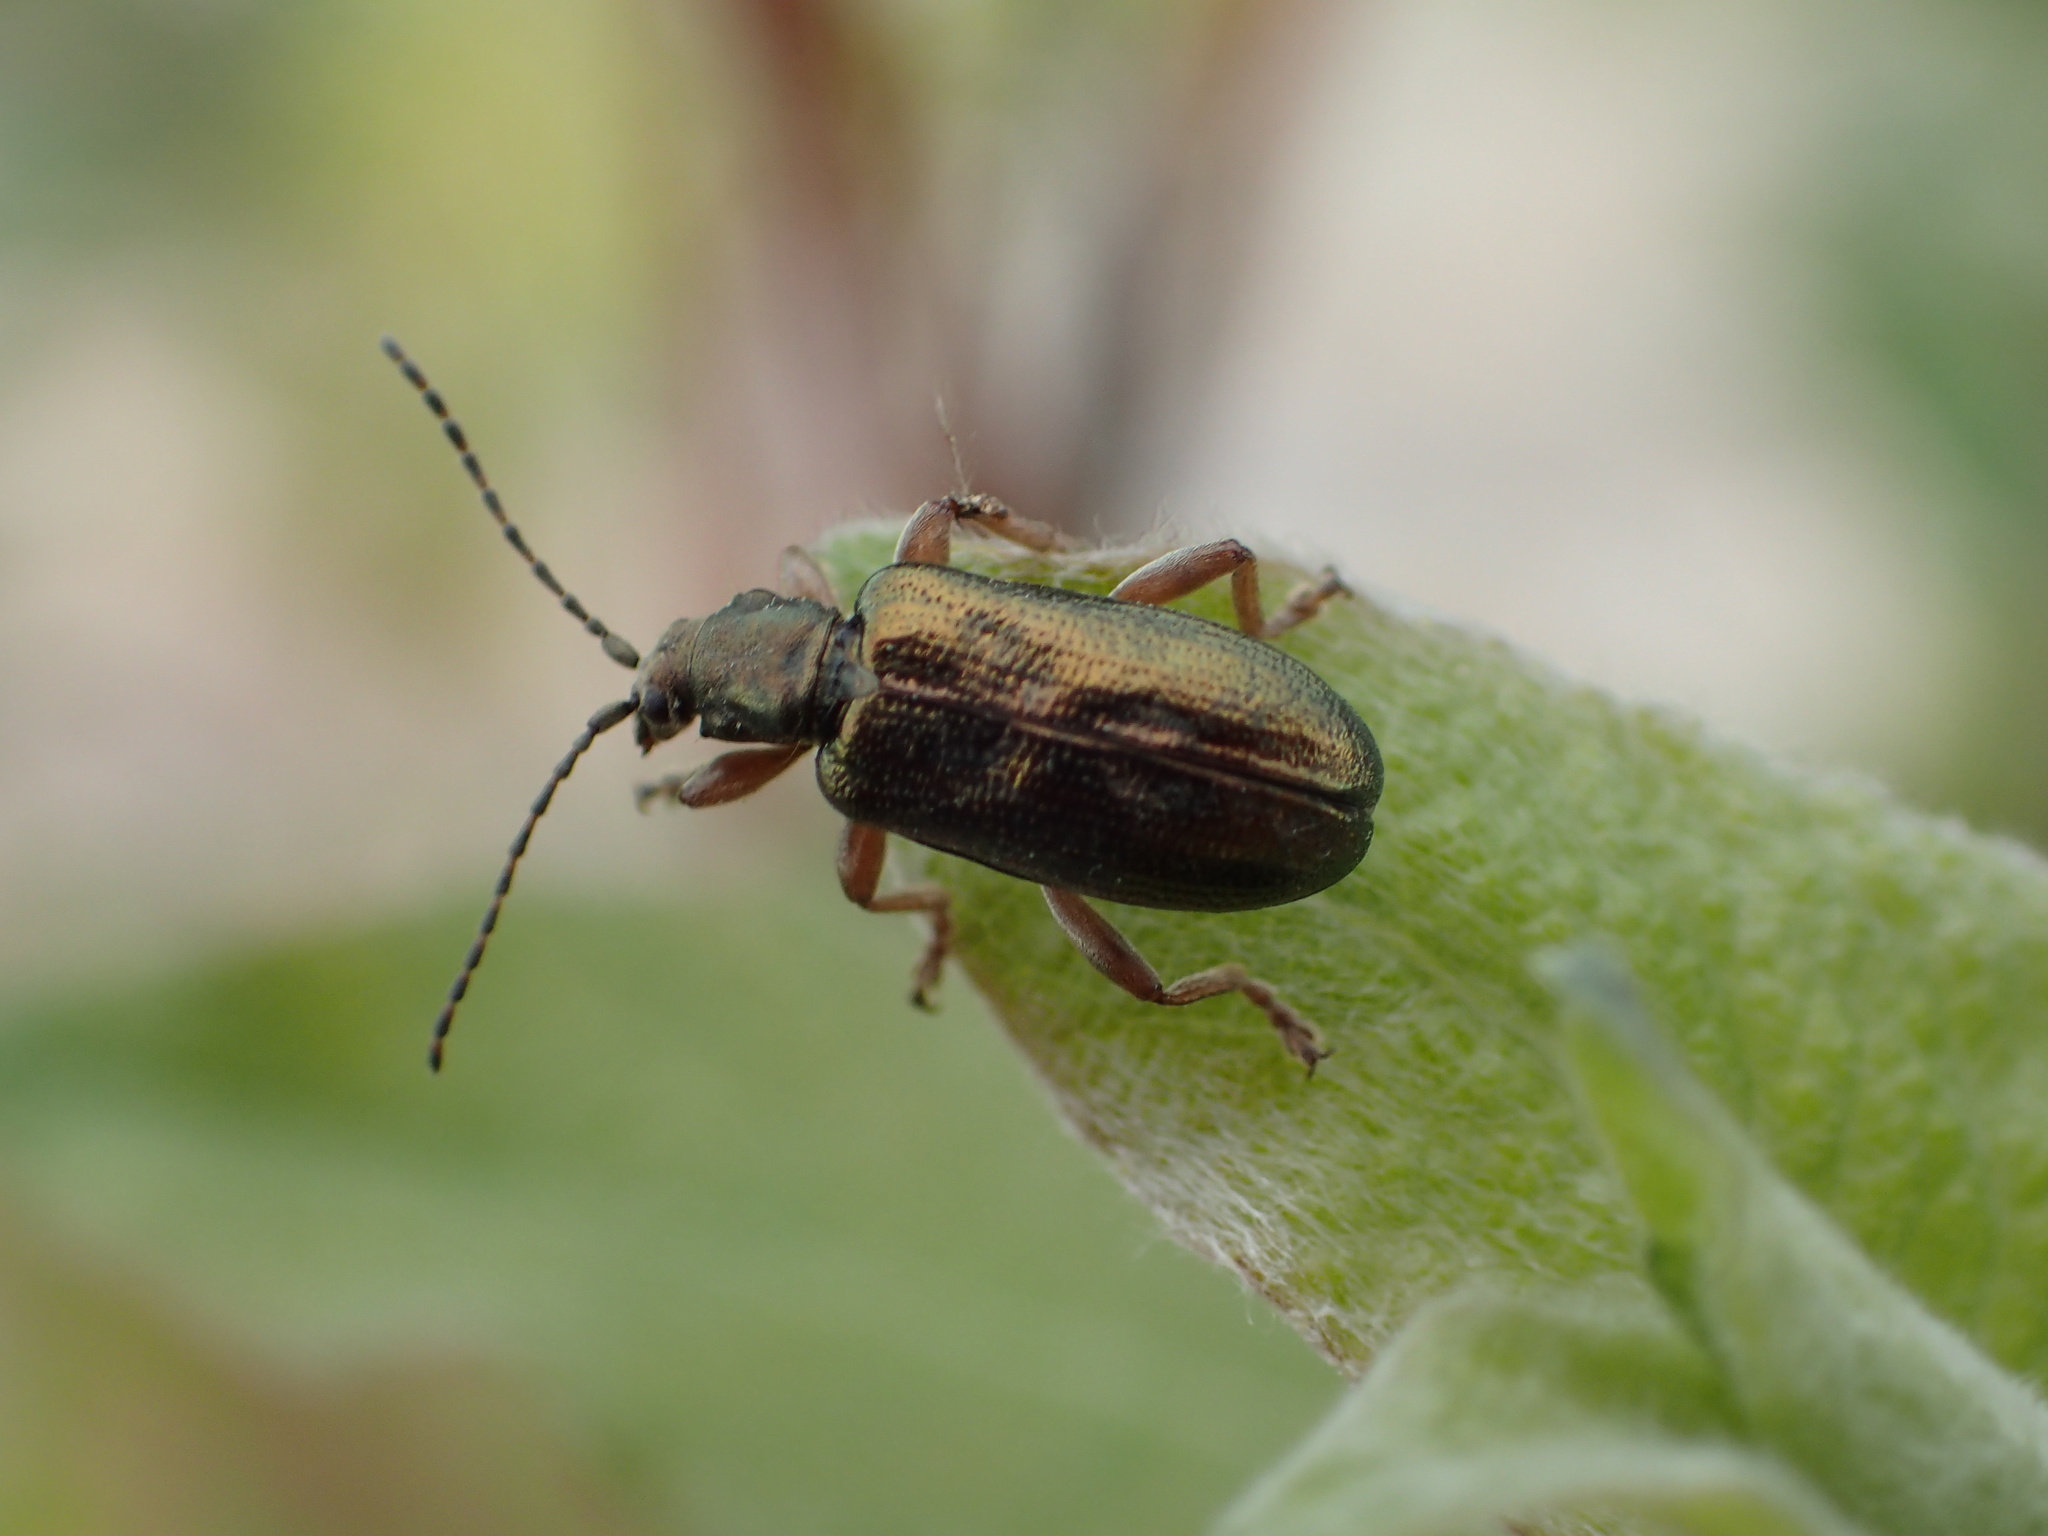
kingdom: Animalia
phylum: Arthropoda
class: Insecta
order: Coleoptera
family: Chrysomelidae
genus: Plateumaris
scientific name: Plateumaris germari
